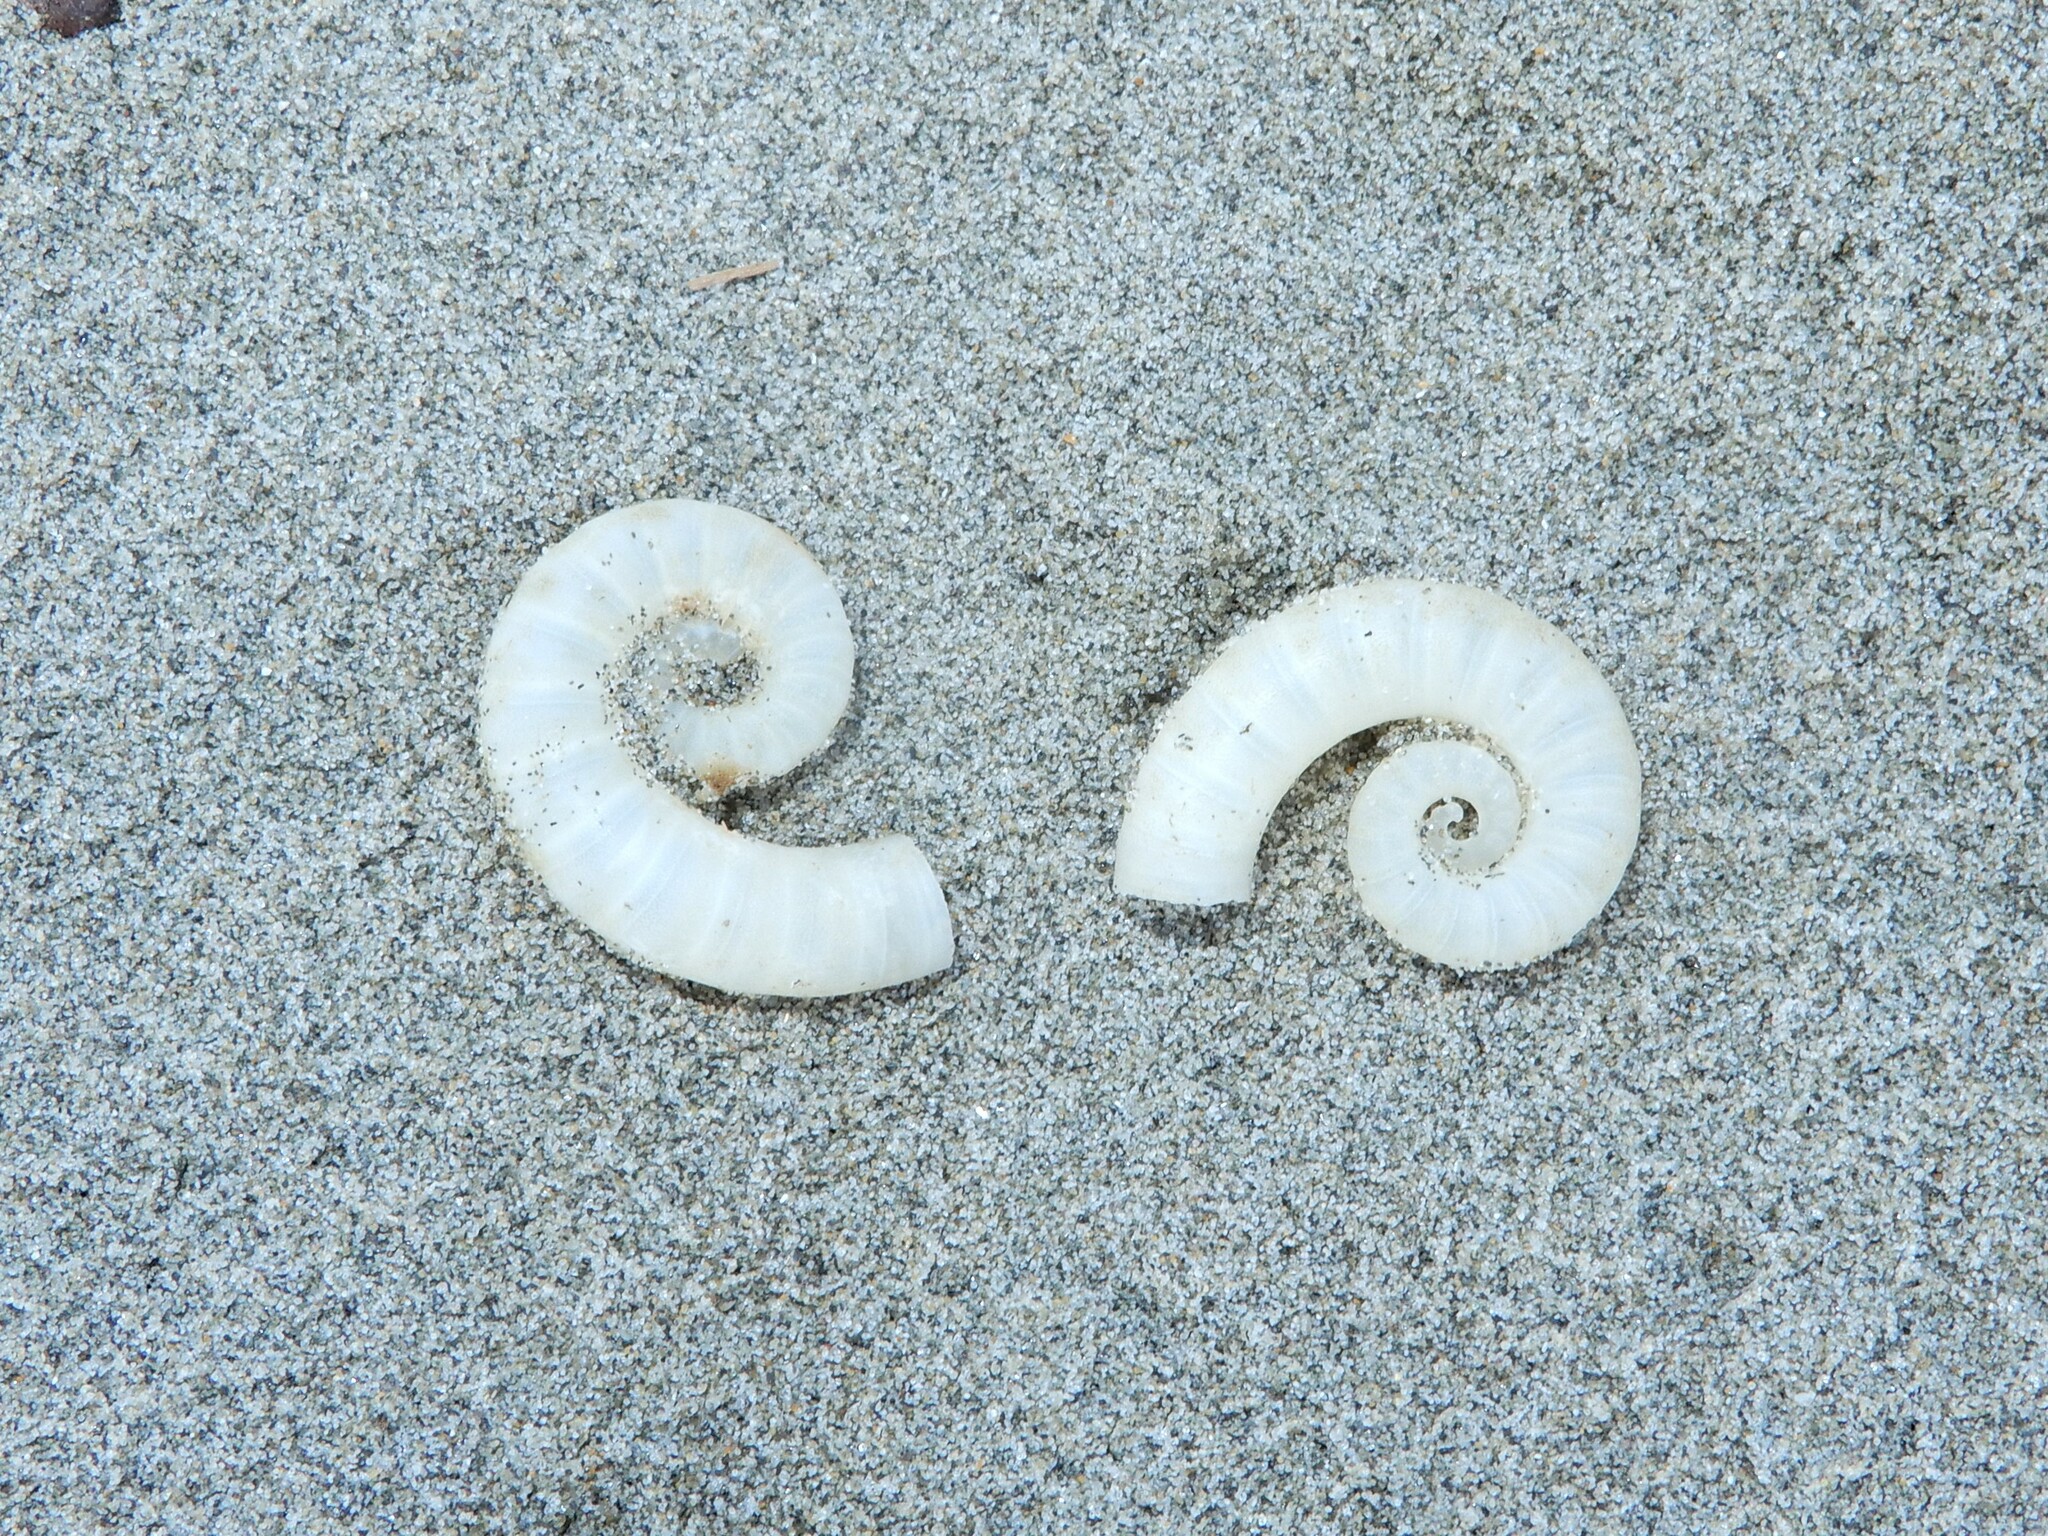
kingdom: Animalia
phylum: Mollusca
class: Cephalopoda
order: Spirulida
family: Spirulidae
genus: Spirula
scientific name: Spirula spirula
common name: Ram's horn squid
